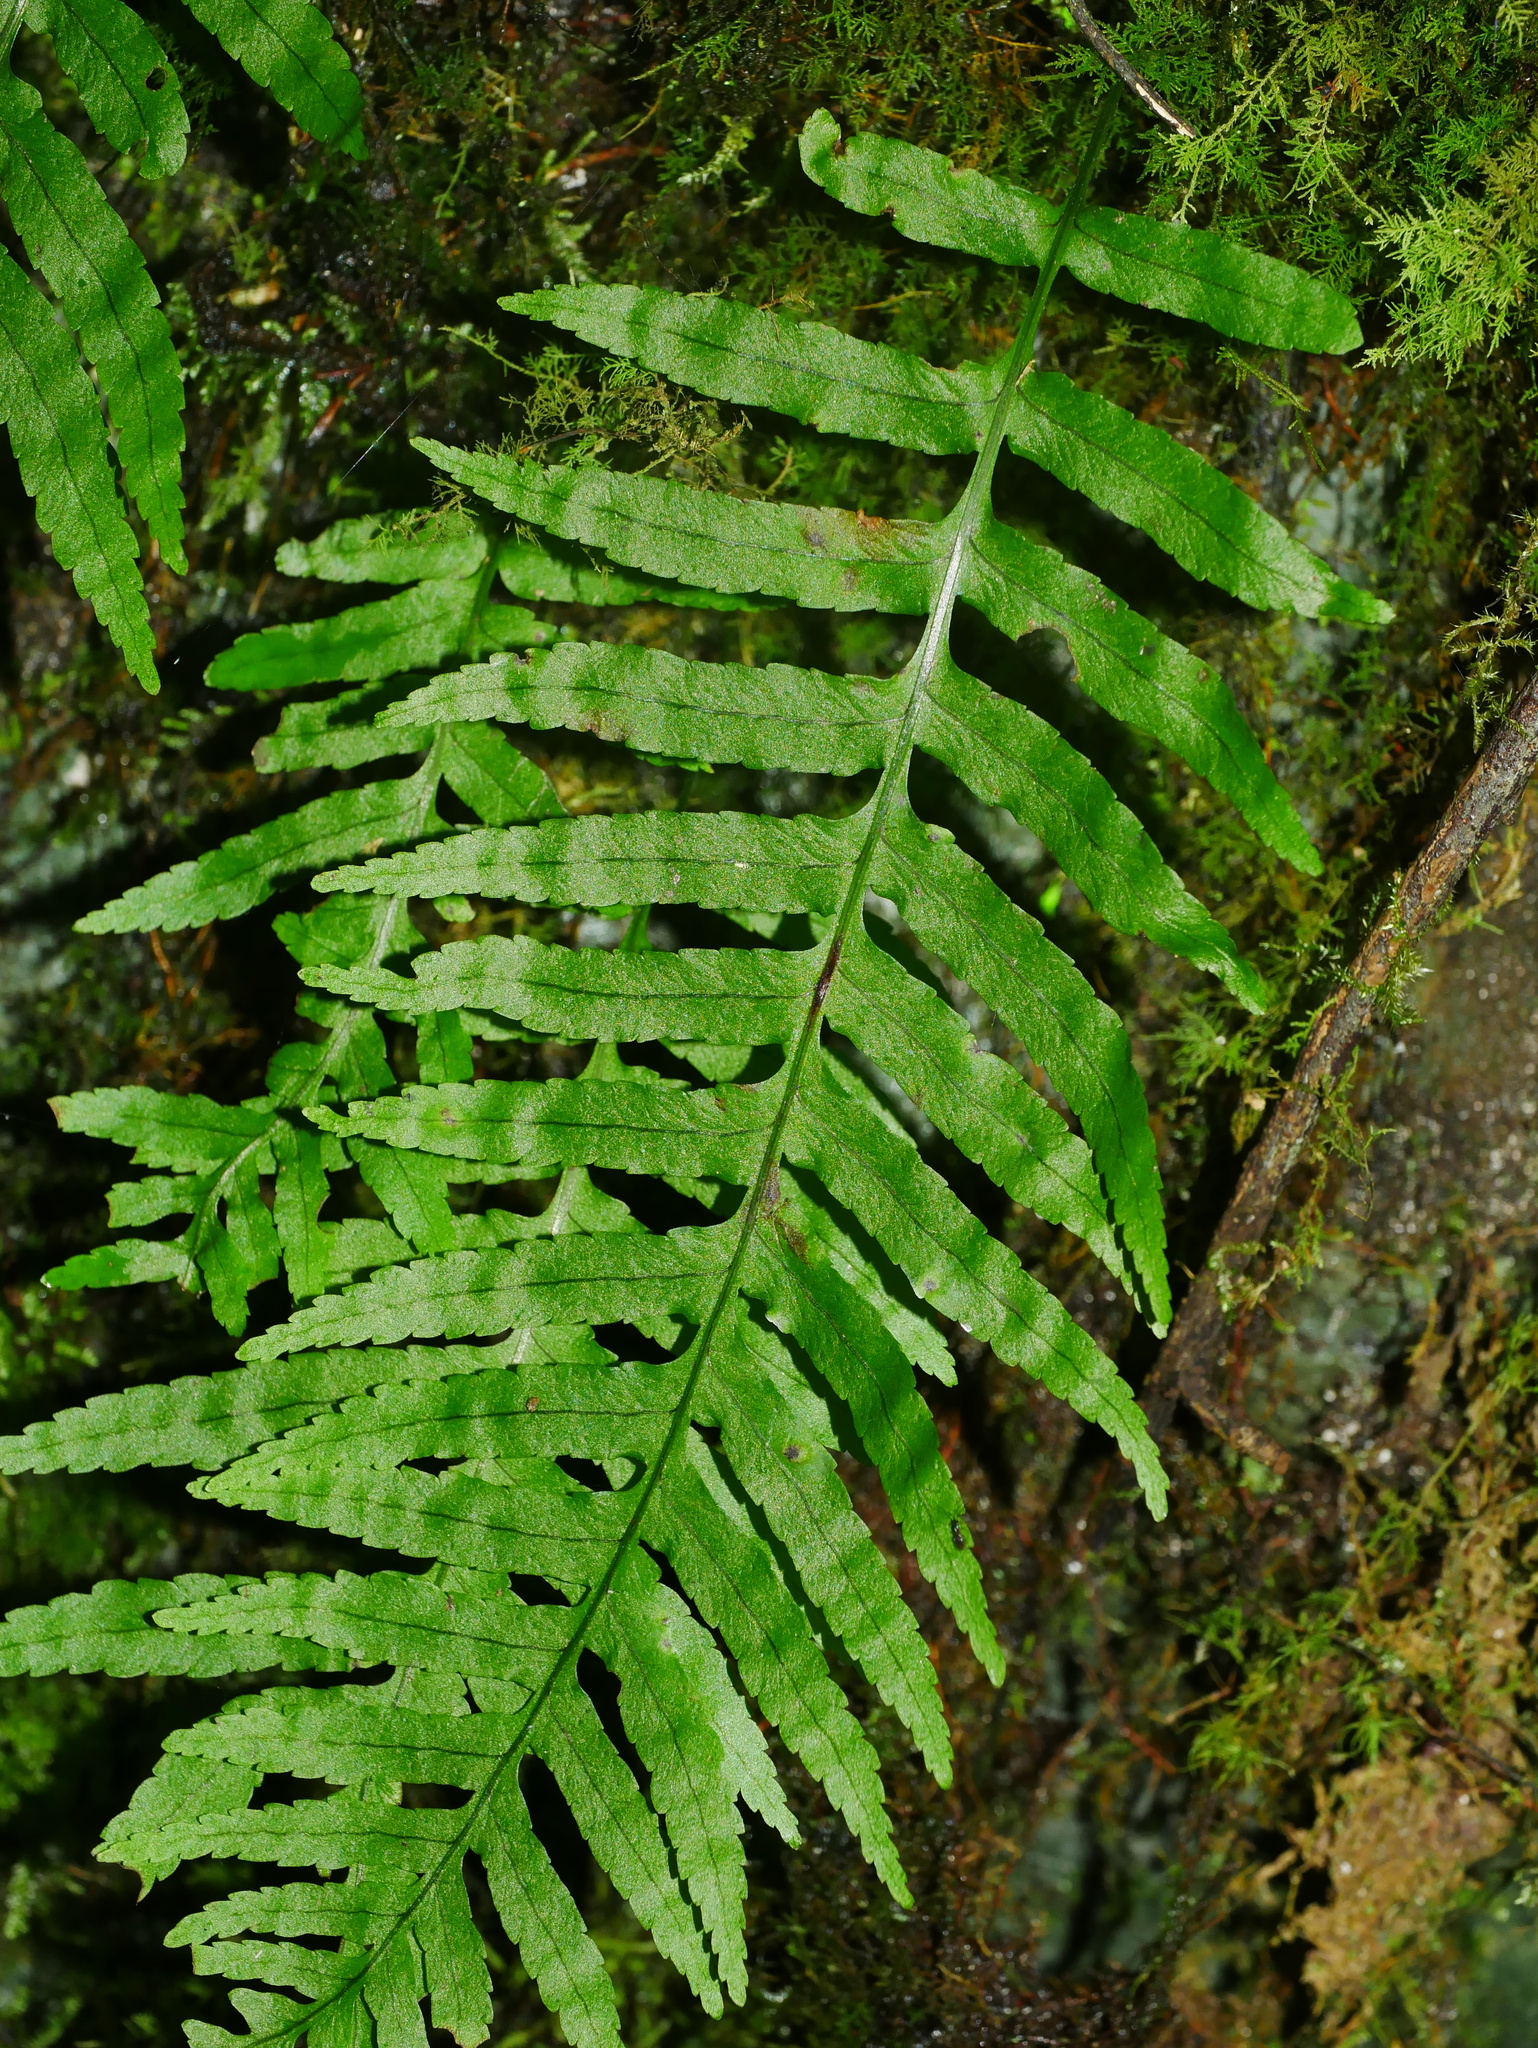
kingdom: Plantae
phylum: Tracheophyta
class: Polypodiopsida
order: Polypodiales
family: Polypodiaceae
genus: Goniophlebium
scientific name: Goniophlebium fieldingianum
